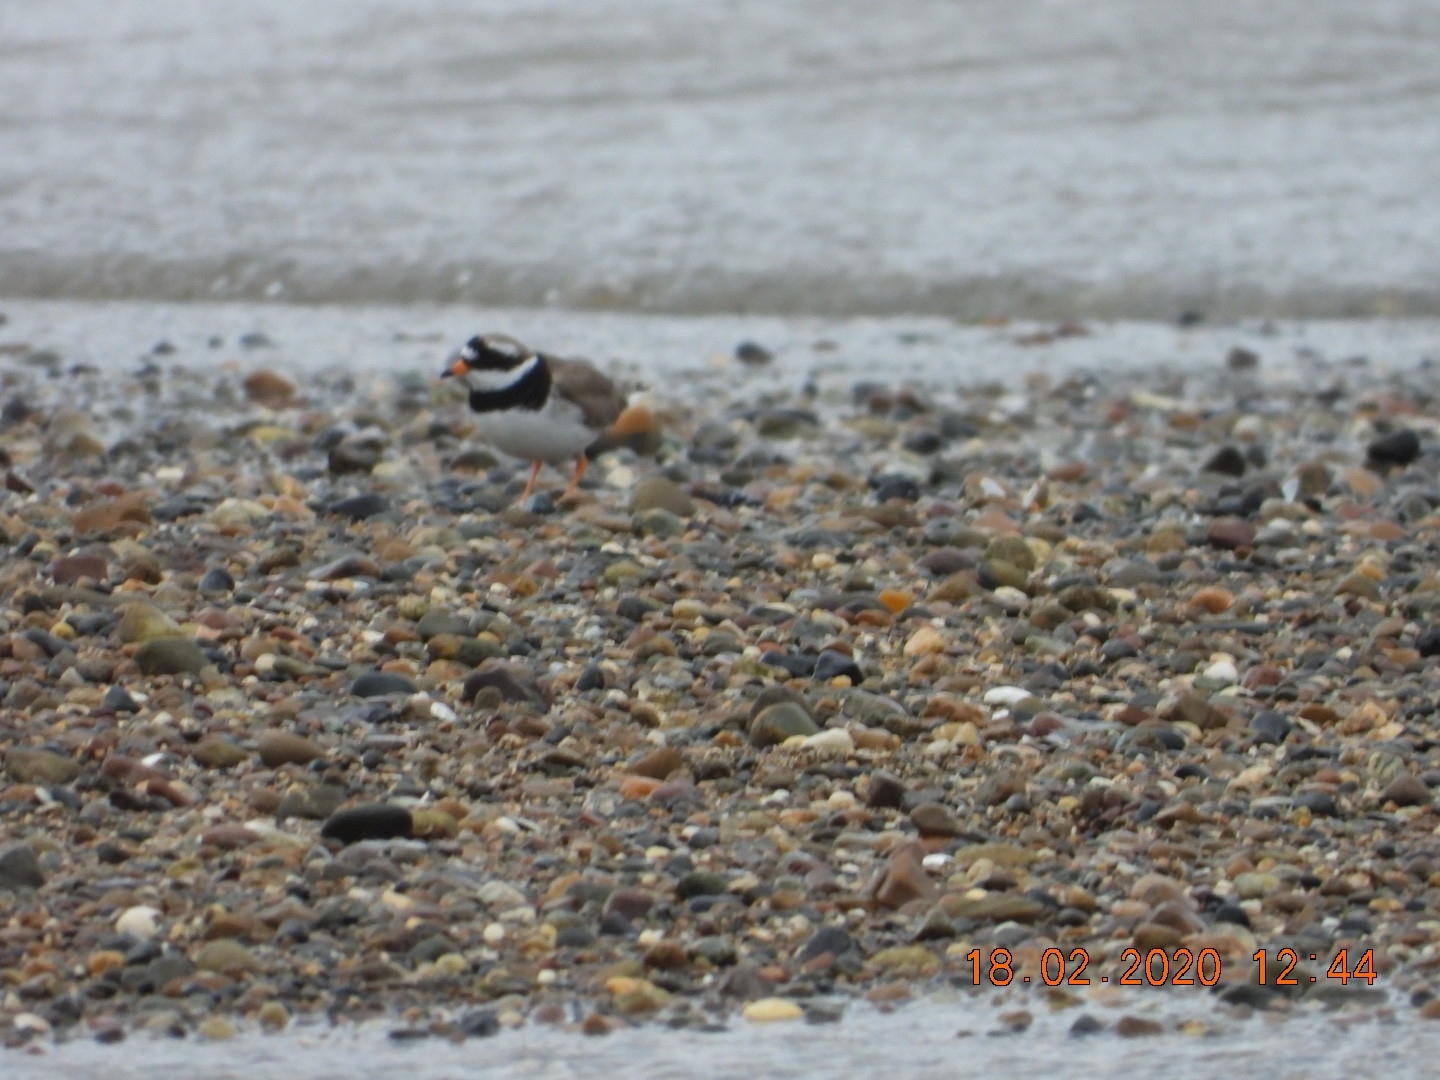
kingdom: Animalia
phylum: Chordata
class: Aves
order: Charadriiformes
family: Charadriidae
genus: Charadrius
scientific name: Charadrius hiaticula
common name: Common ringed plover
